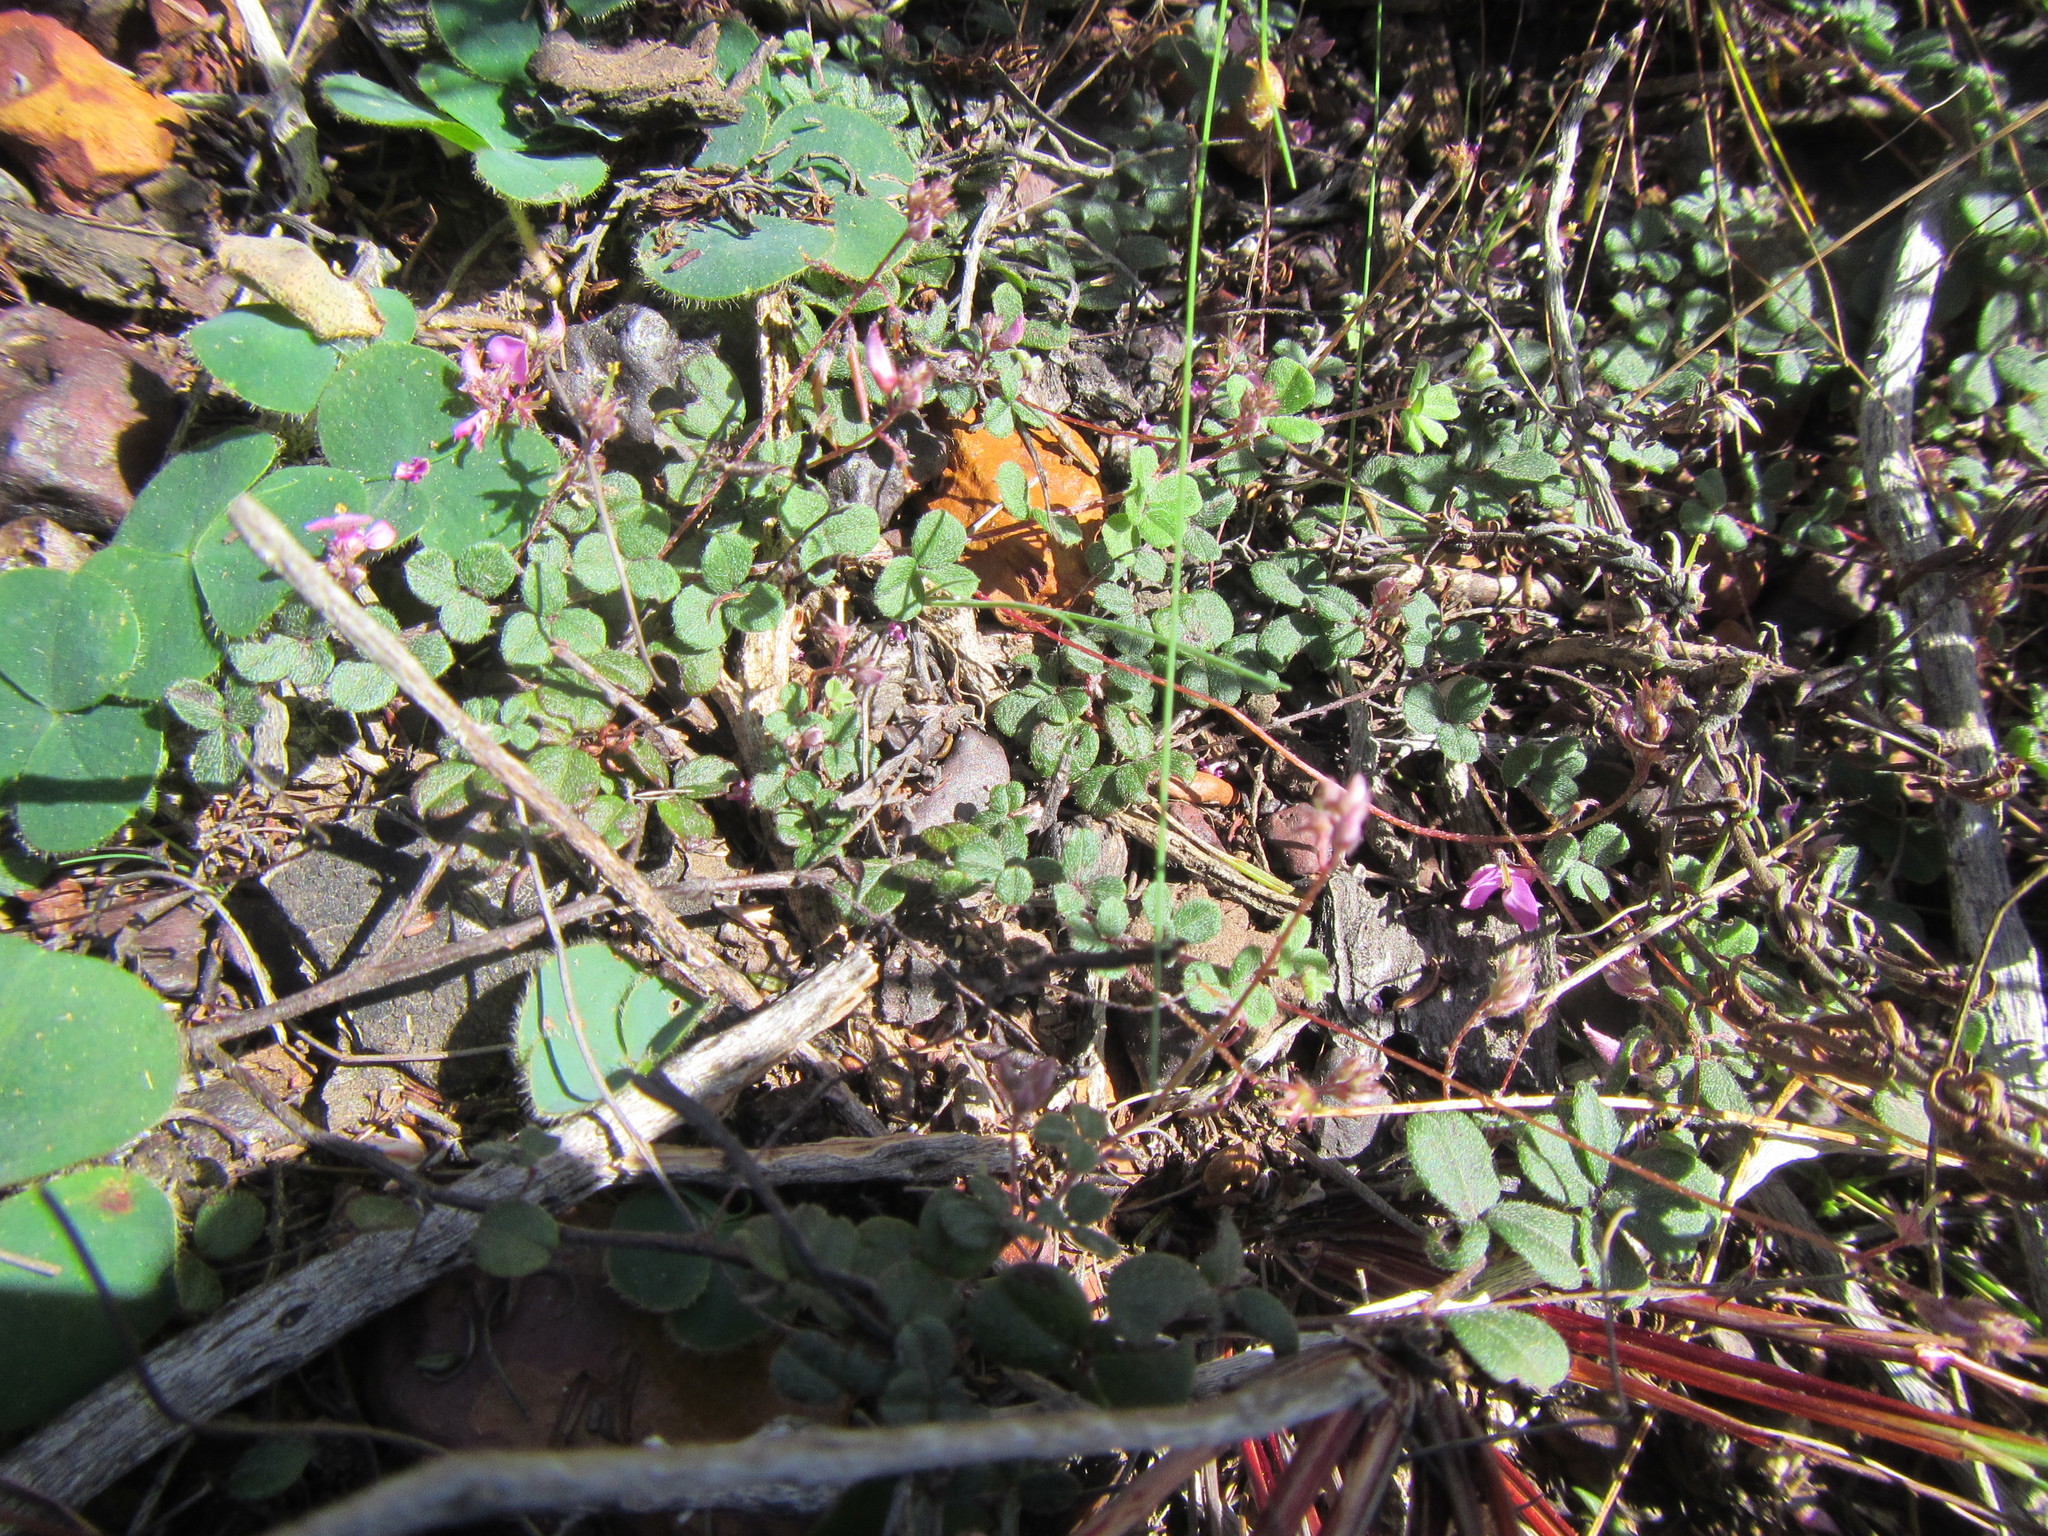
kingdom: Plantae
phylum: Tracheophyta
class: Magnoliopsida
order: Fabales
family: Fabaceae
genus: Indigofera
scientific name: Indigofera sarmentosa
